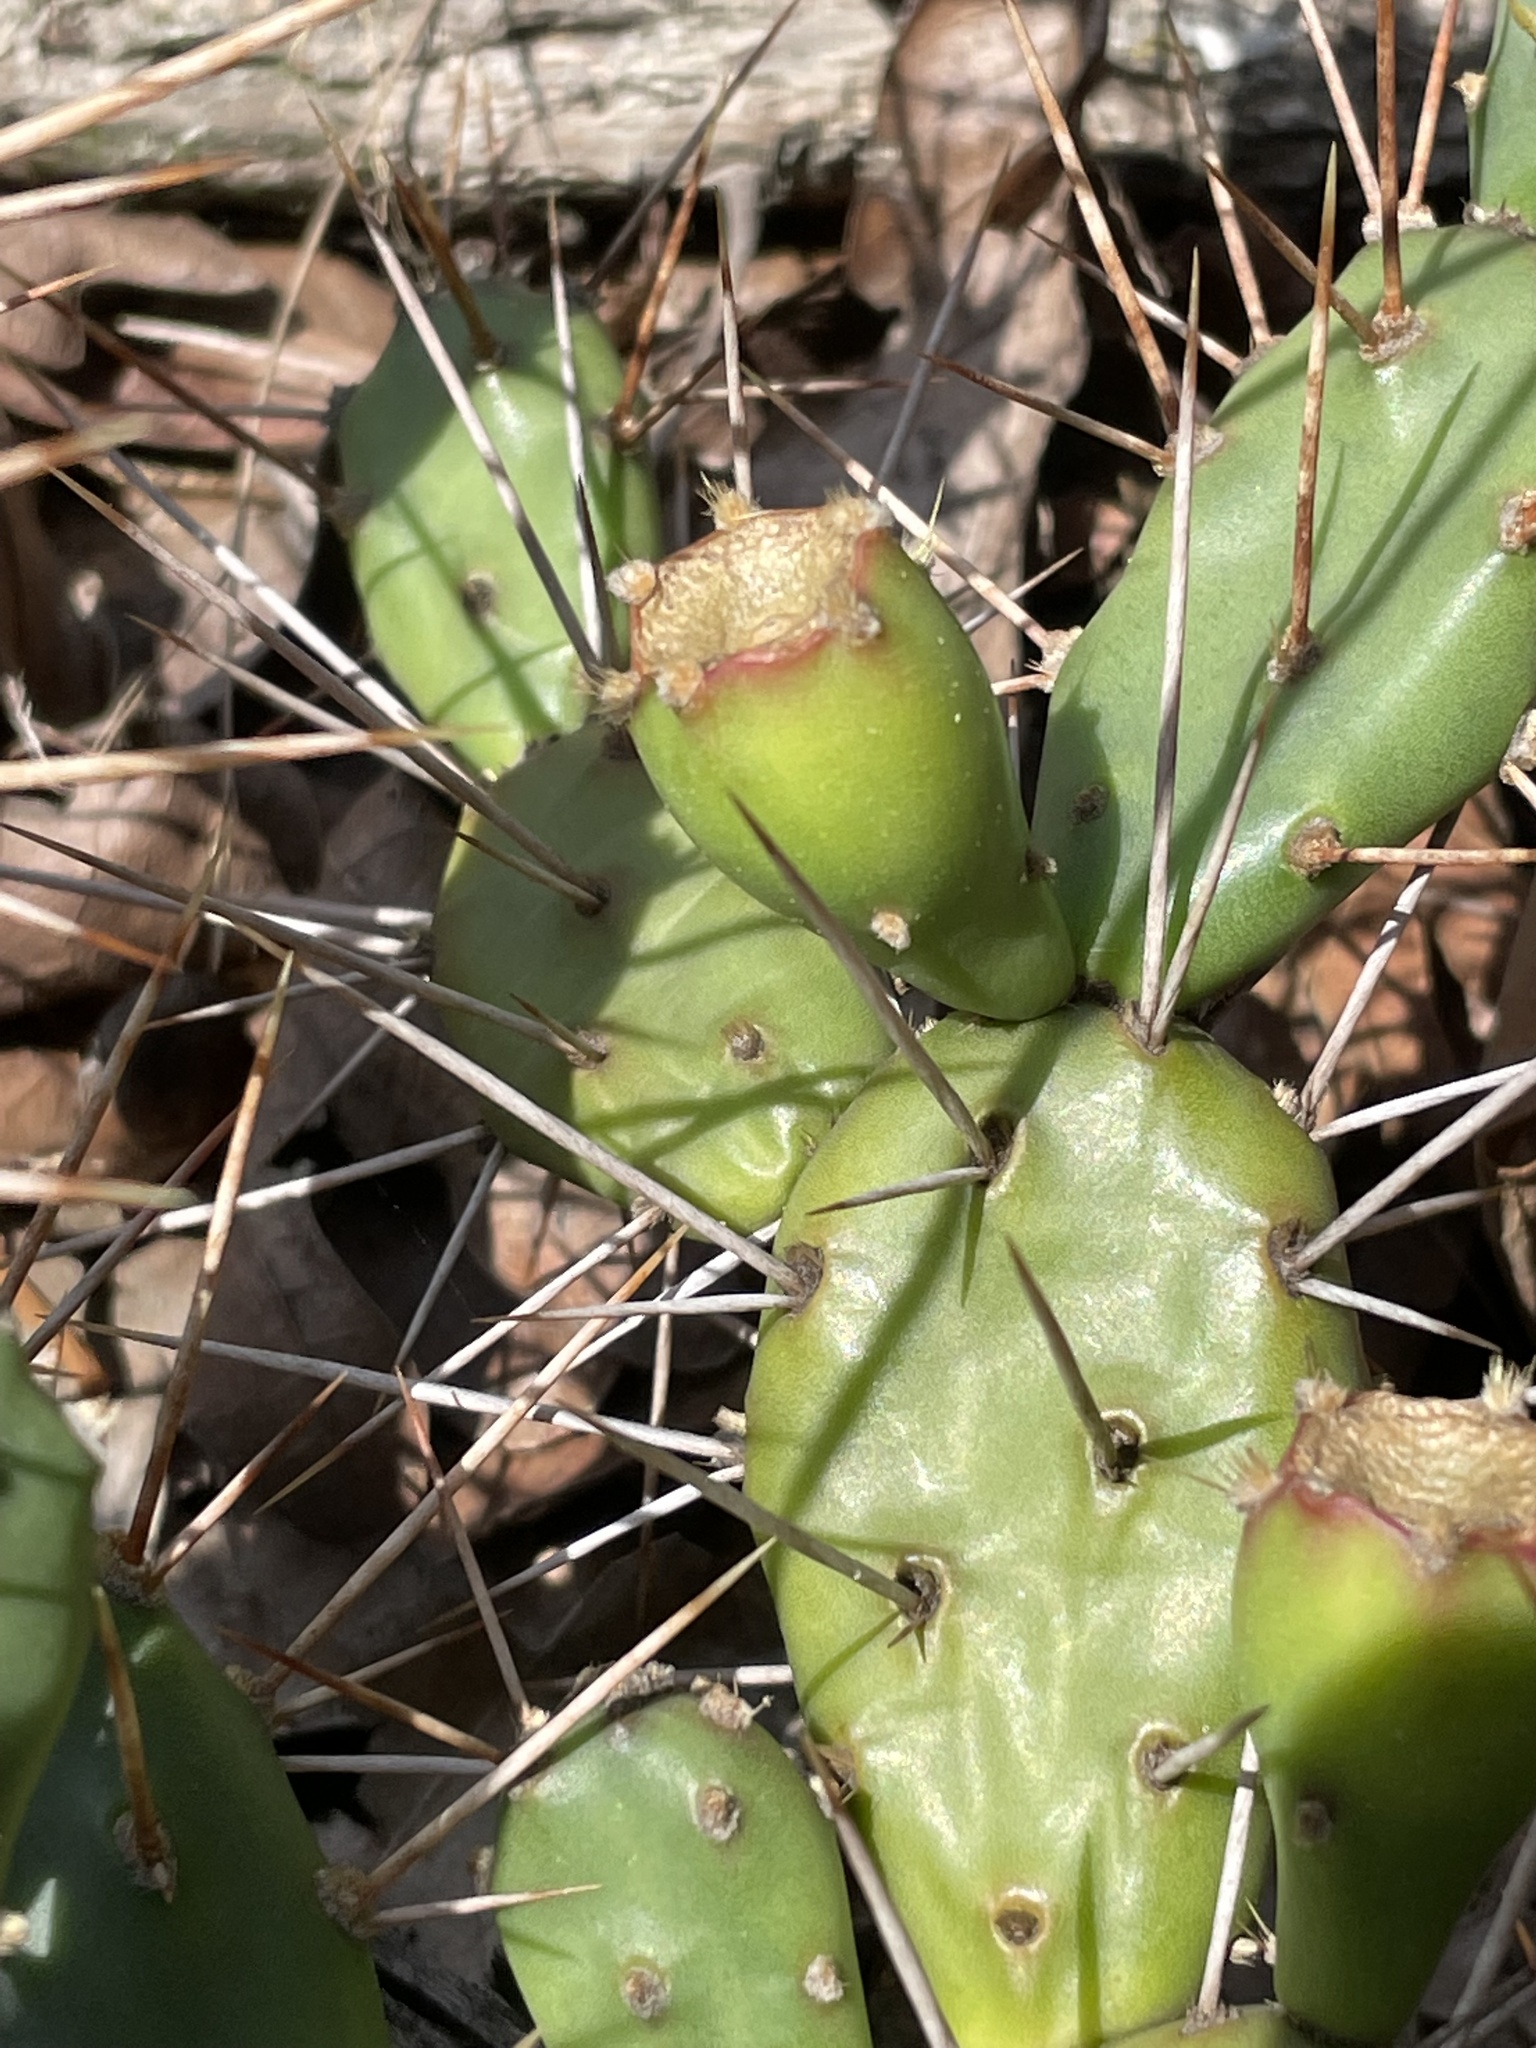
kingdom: Plantae
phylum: Tracheophyta
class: Magnoliopsida
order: Caryophyllales
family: Cactaceae
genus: Opuntia
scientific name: Opuntia drummondii
